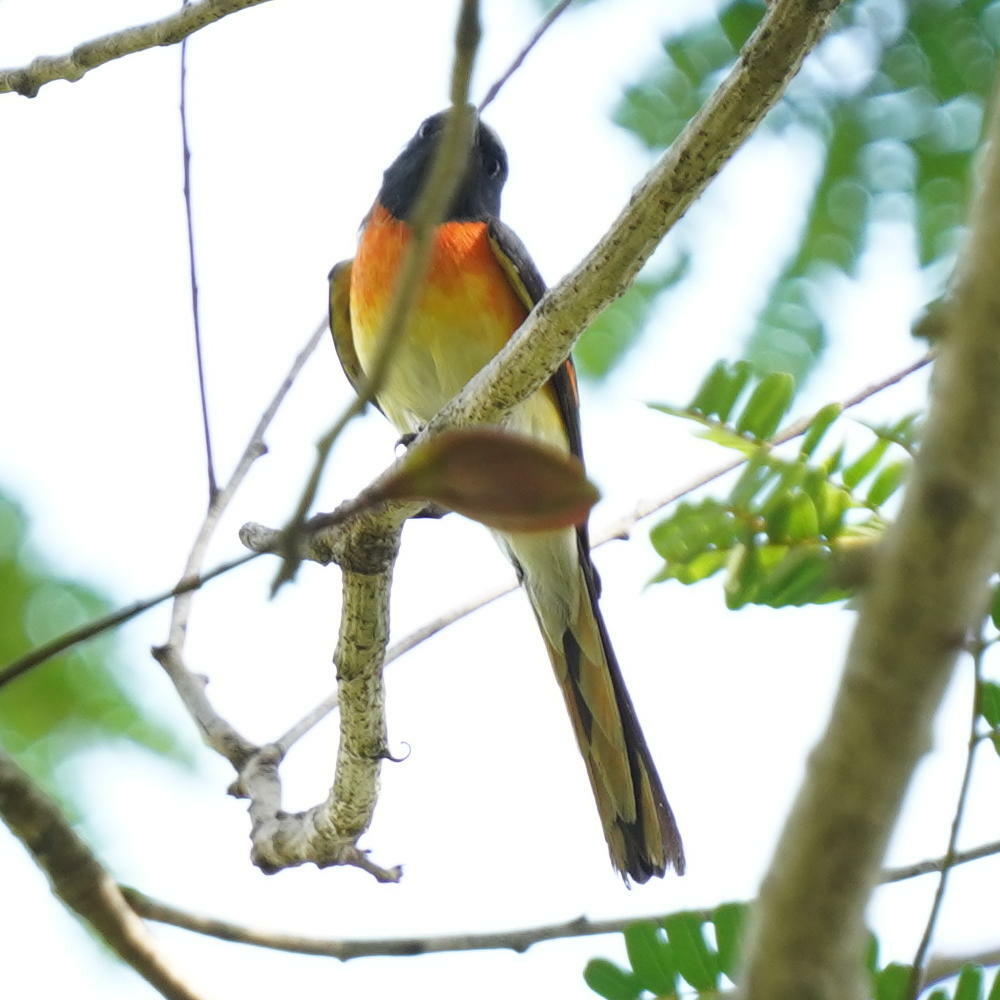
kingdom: Animalia
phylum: Chordata
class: Aves
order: Passeriformes
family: Campephagidae
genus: Pericrocotus
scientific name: Pericrocotus cinnamomeus
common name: Small minivet
